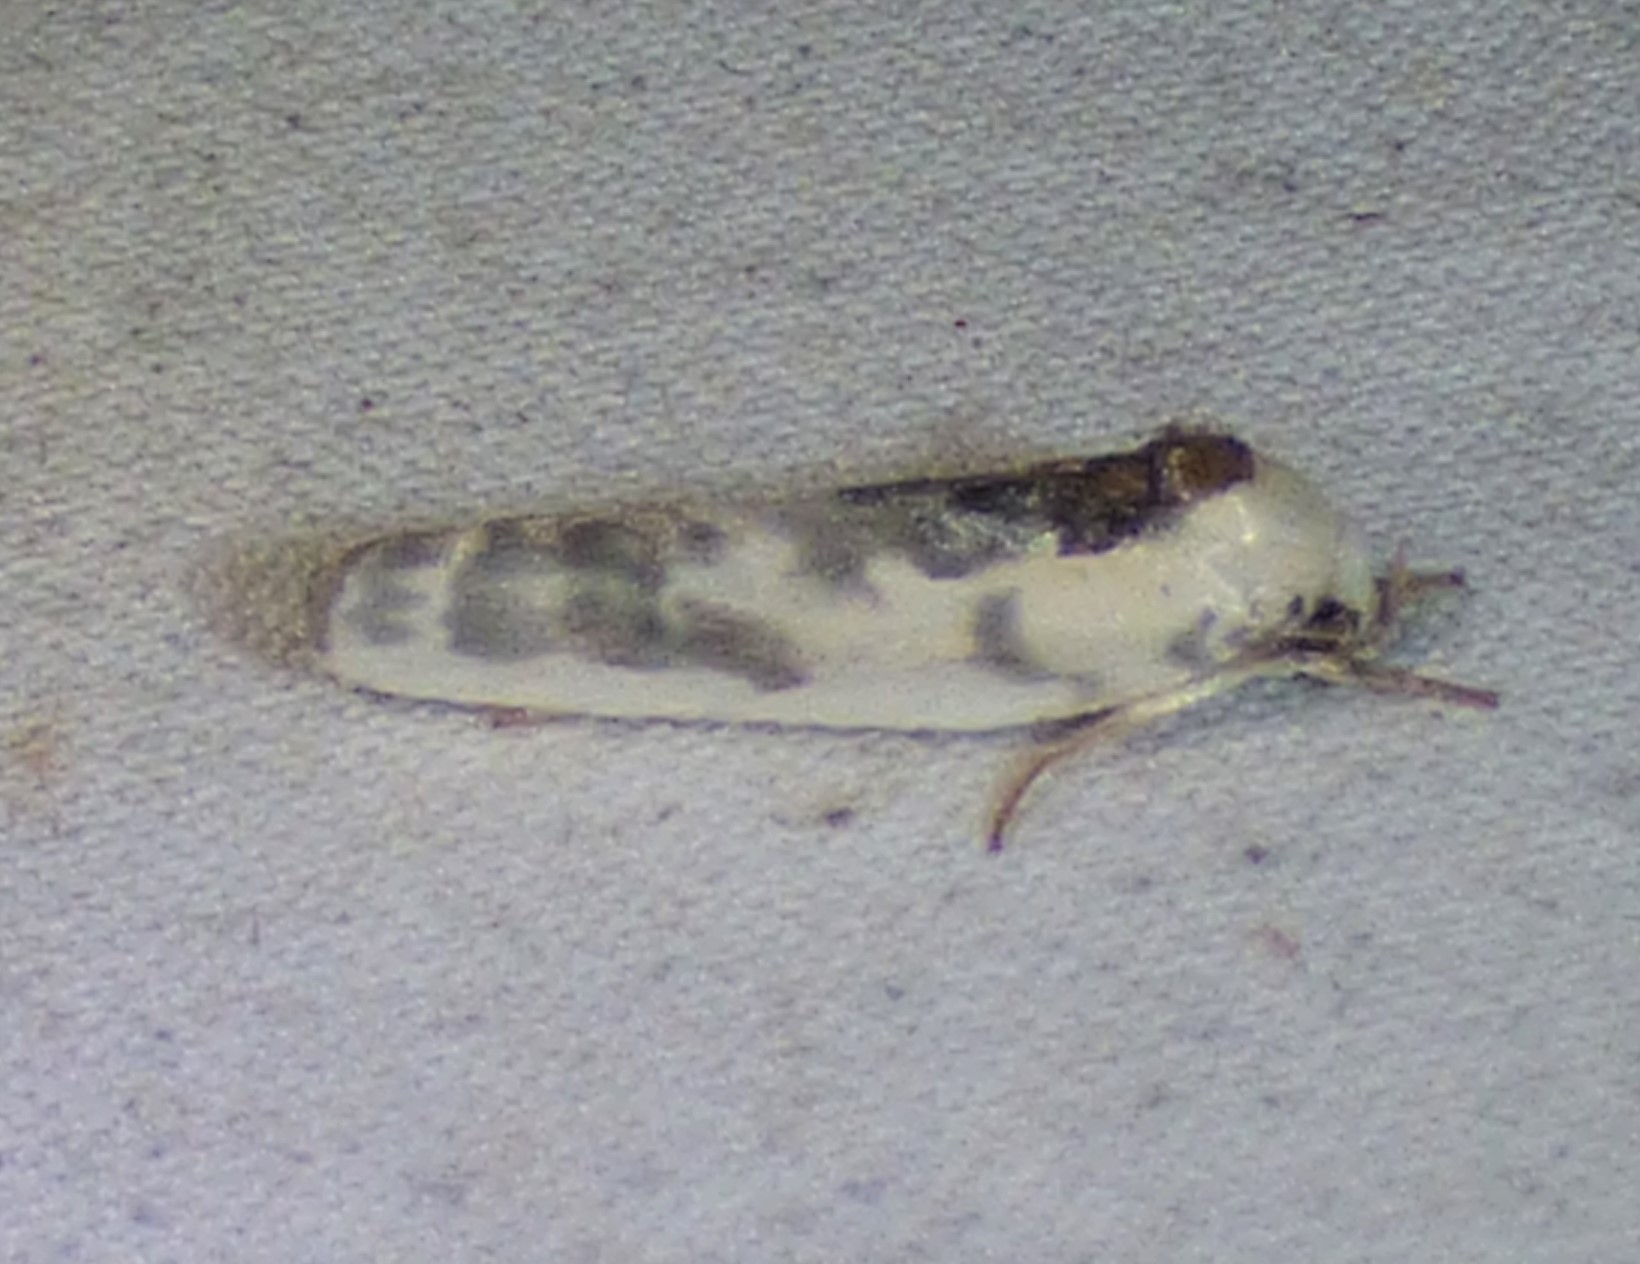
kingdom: Animalia
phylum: Arthropoda
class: Insecta
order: Lepidoptera
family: Depressariidae
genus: Antaeotricha
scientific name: Antaeotricha schlaegeri
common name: Schlaeger's fruitworm moth
